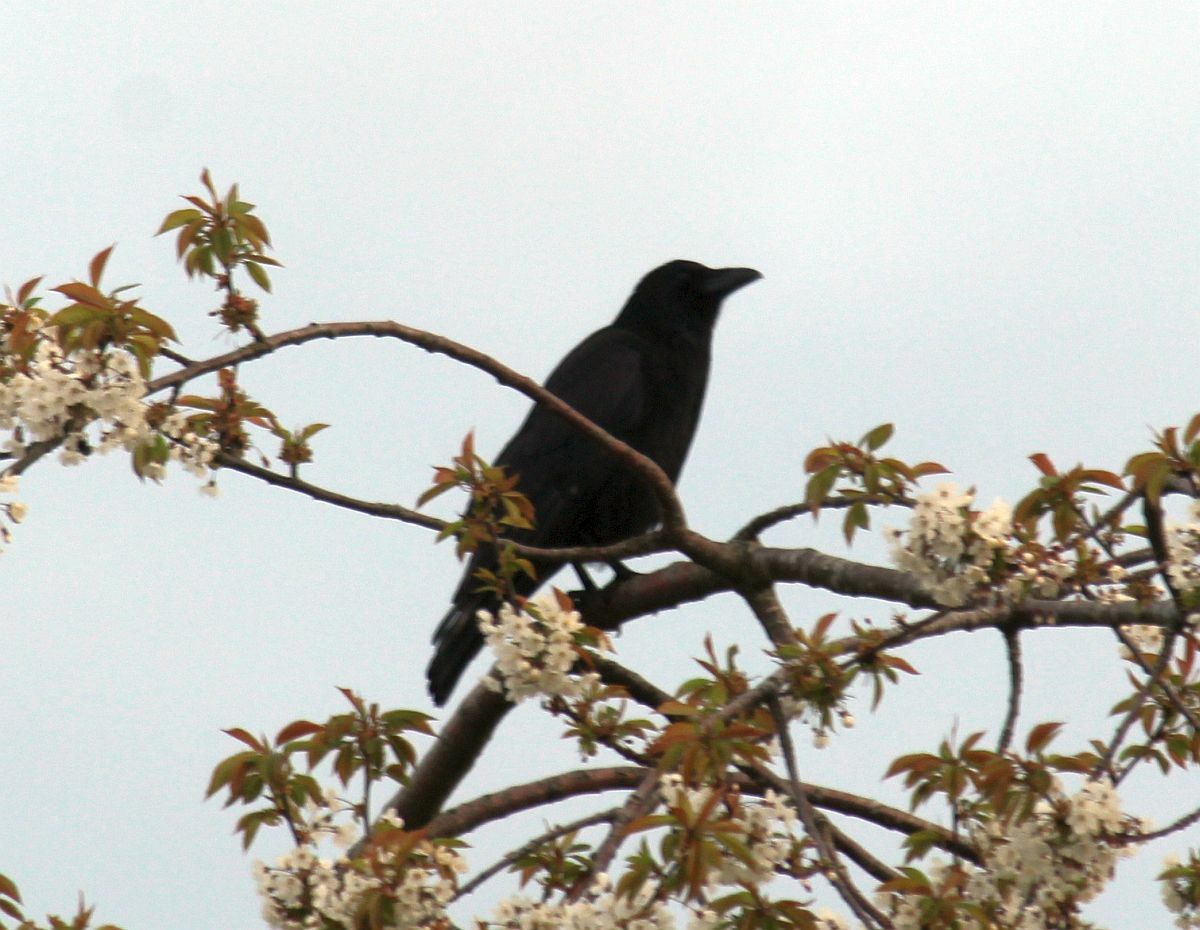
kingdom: Animalia
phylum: Chordata
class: Aves
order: Passeriformes
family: Corvidae
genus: Corvus
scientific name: Corvus corone
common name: Carrion crow
